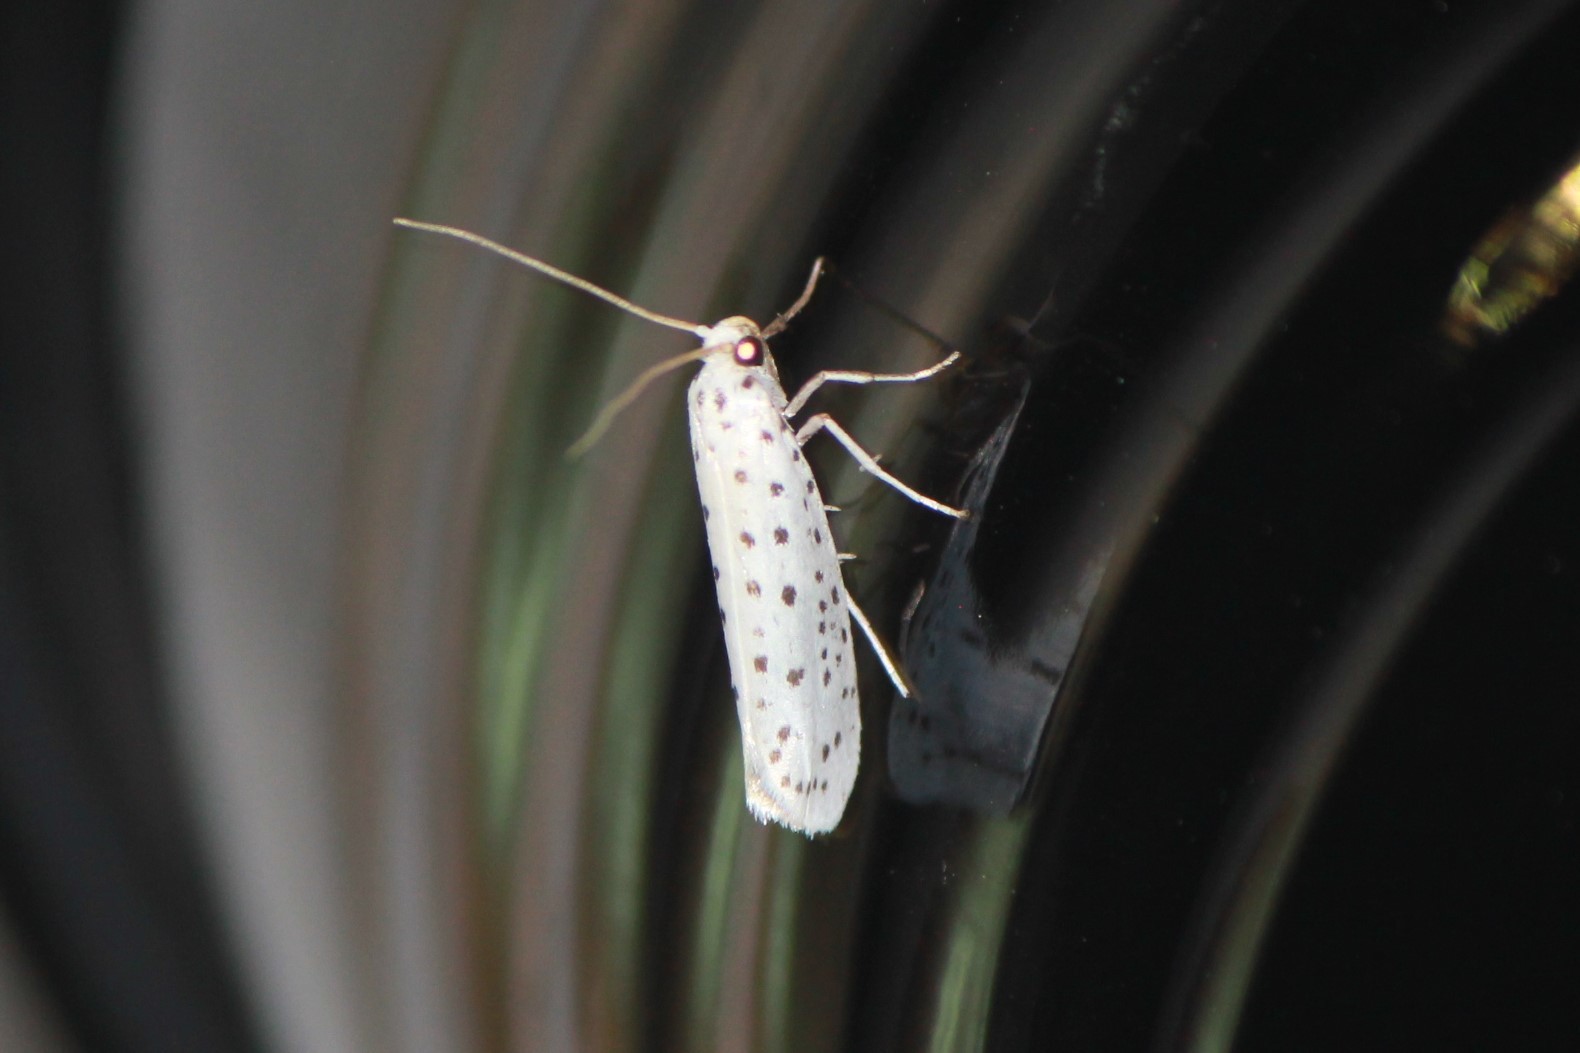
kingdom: Animalia
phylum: Arthropoda
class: Insecta
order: Lepidoptera
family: Yponomeutidae
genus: Yponomeuta
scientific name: Yponomeuta multipunctella
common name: American ermine moth
